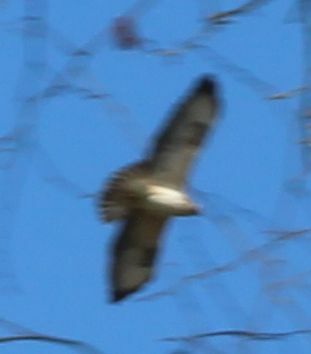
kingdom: Animalia
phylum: Chordata
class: Aves
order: Accipitriformes
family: Accipitridae
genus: Buteo
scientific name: Buteo buteo
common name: Common buzzard
